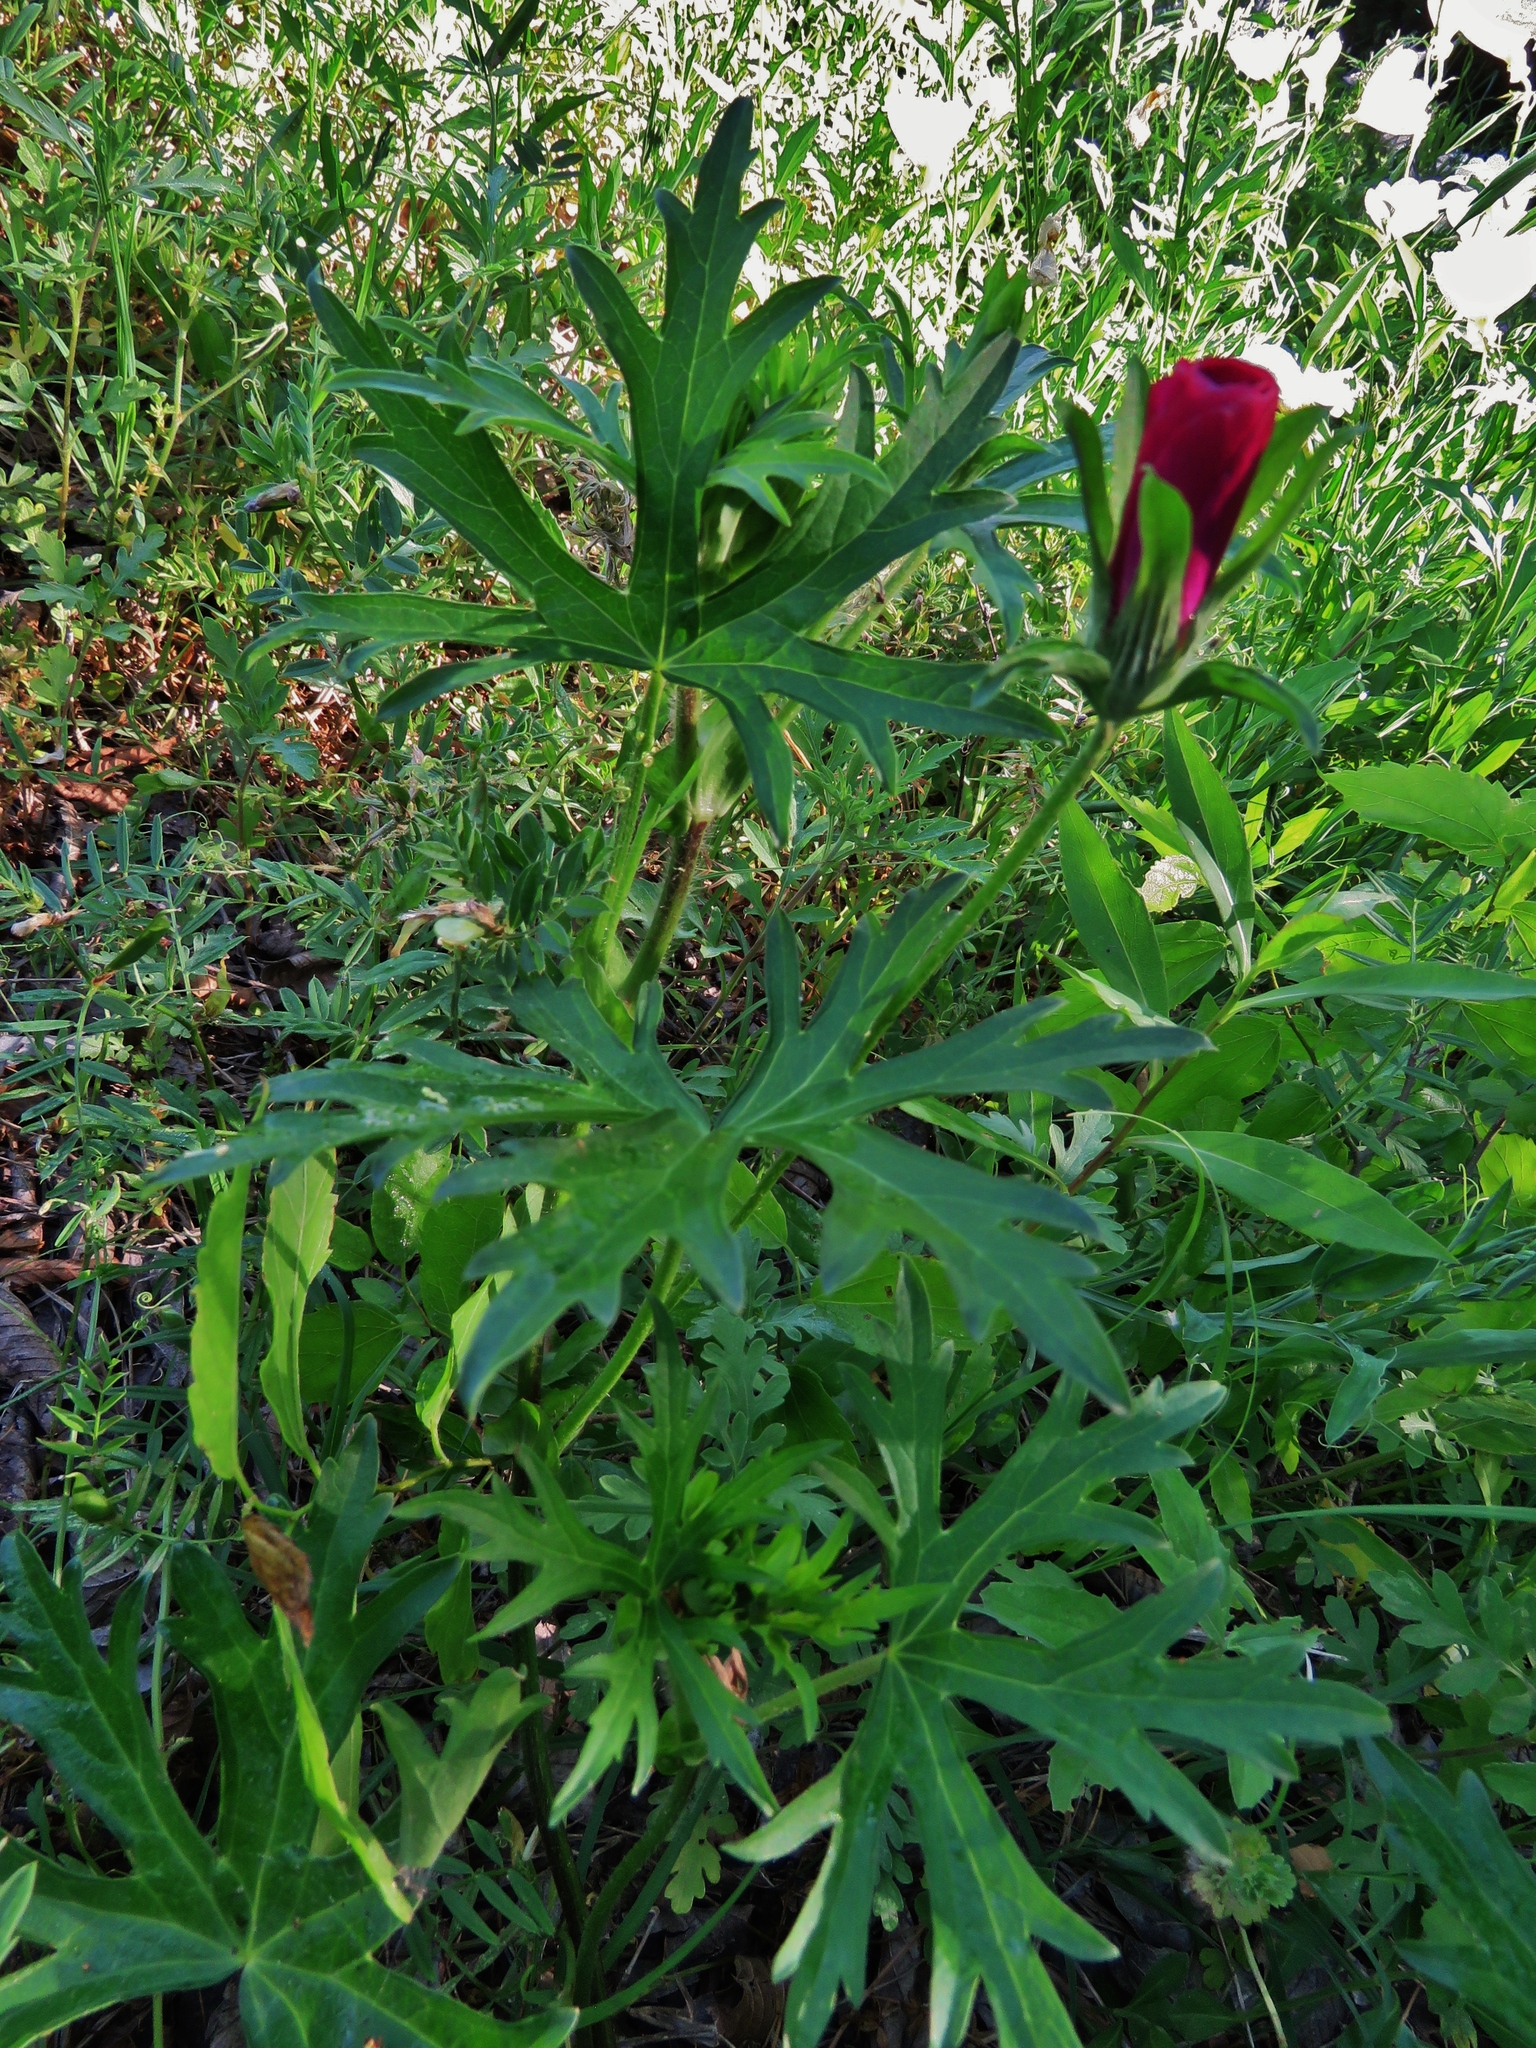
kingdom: Plantae
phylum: Tracheophyta
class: Magnoliopsida
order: Malvales
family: Malvaceae
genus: Callirhoe
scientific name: Callirhoe involucrata
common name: Purple poppy-mallow
